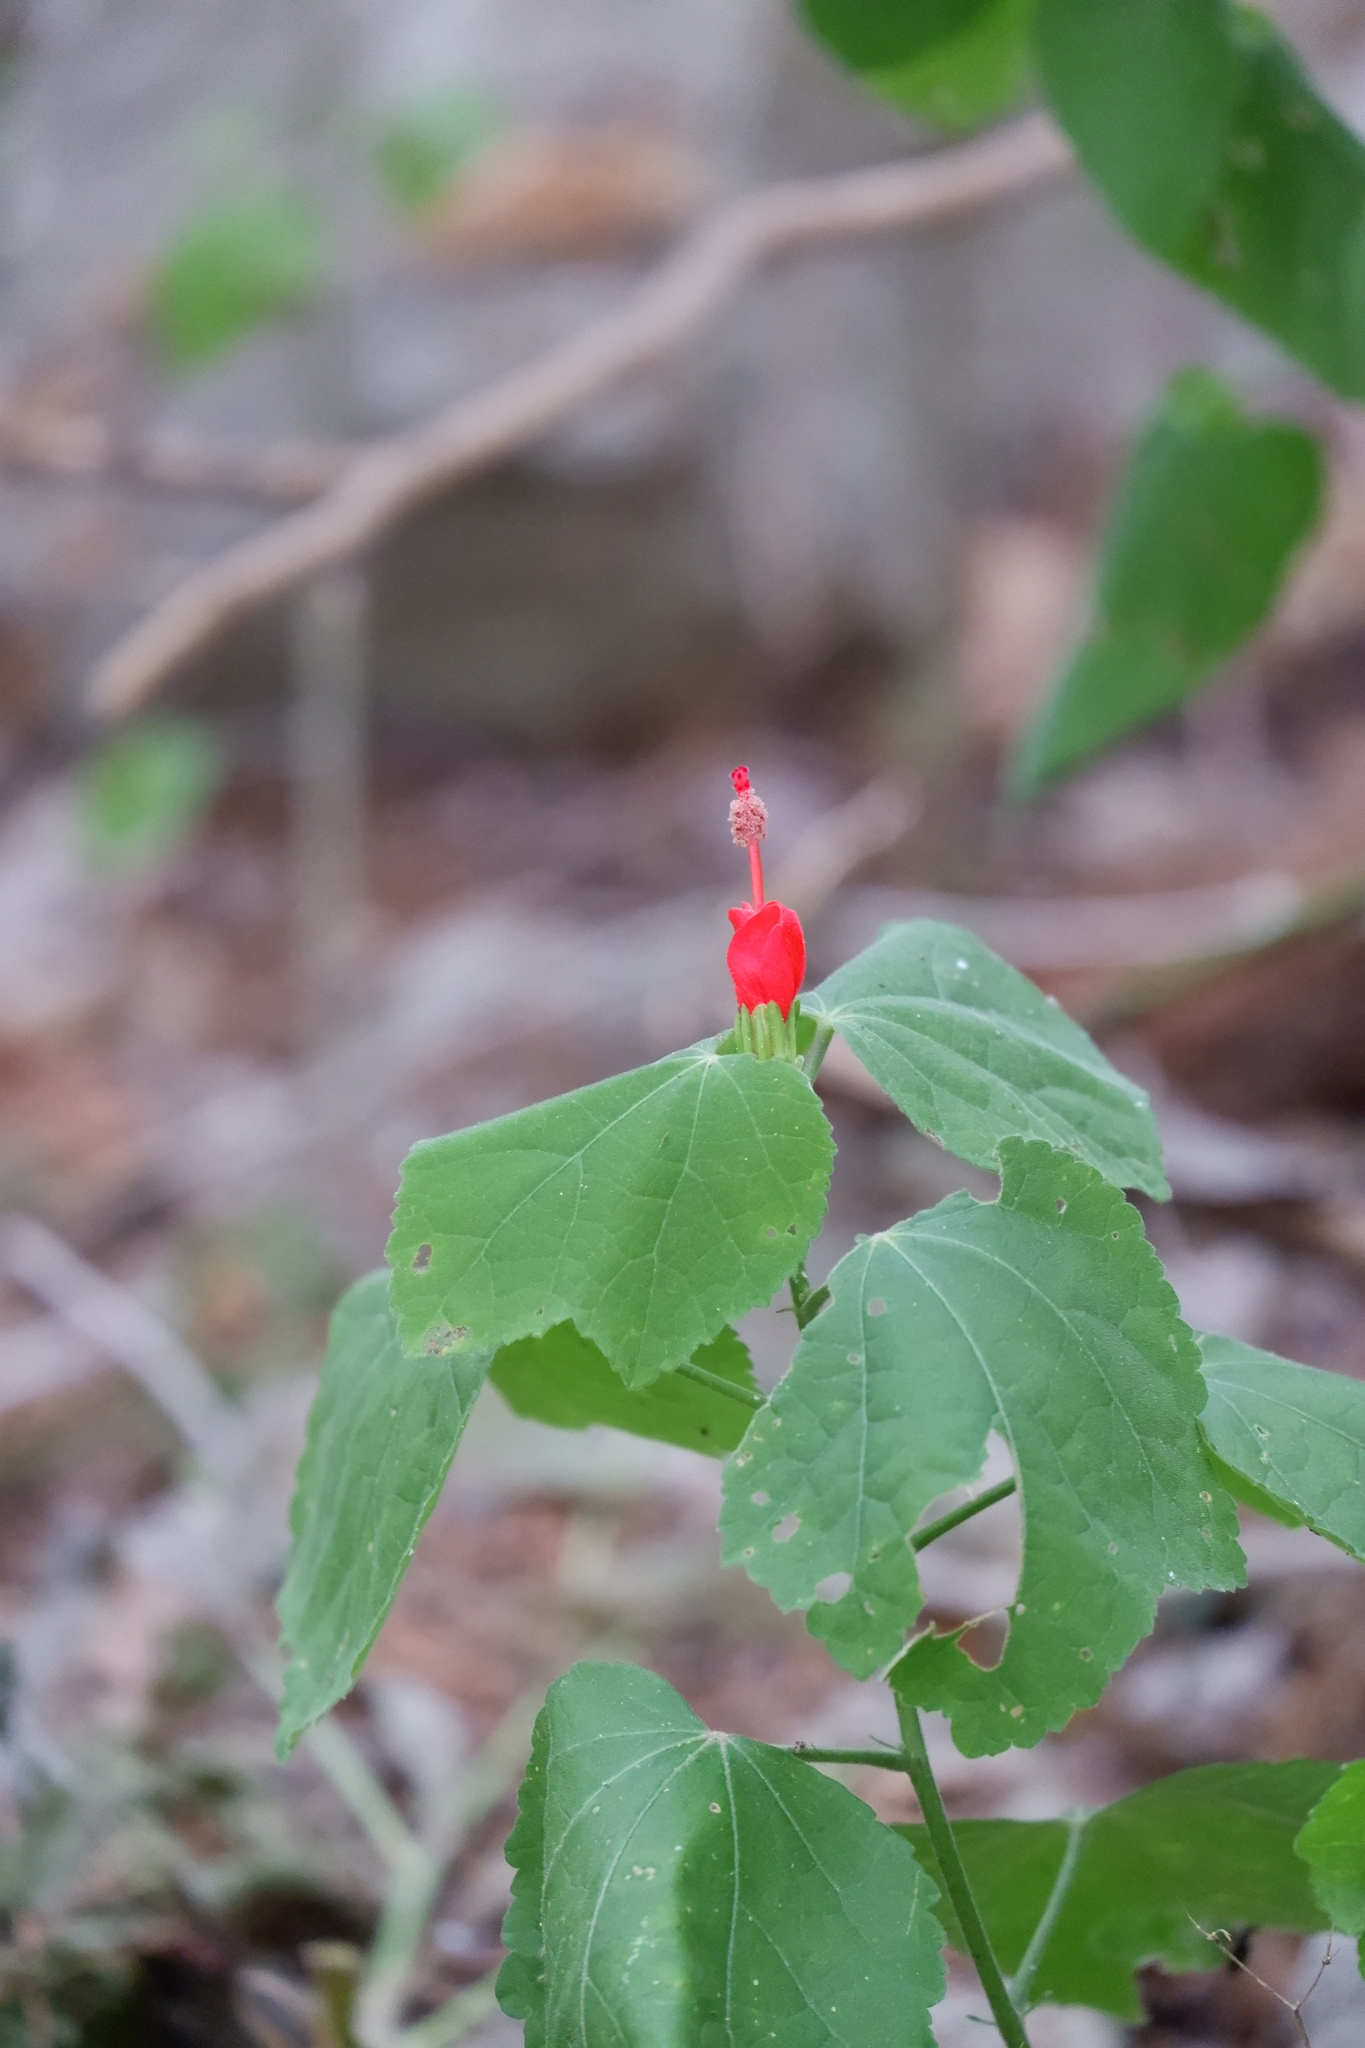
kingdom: Plantae
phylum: Tracheophyta
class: Magnoliopsida
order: Malvales
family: Malvaceae
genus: Malvaviscus
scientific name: Malvaviscus arboreus
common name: Wax mallow
